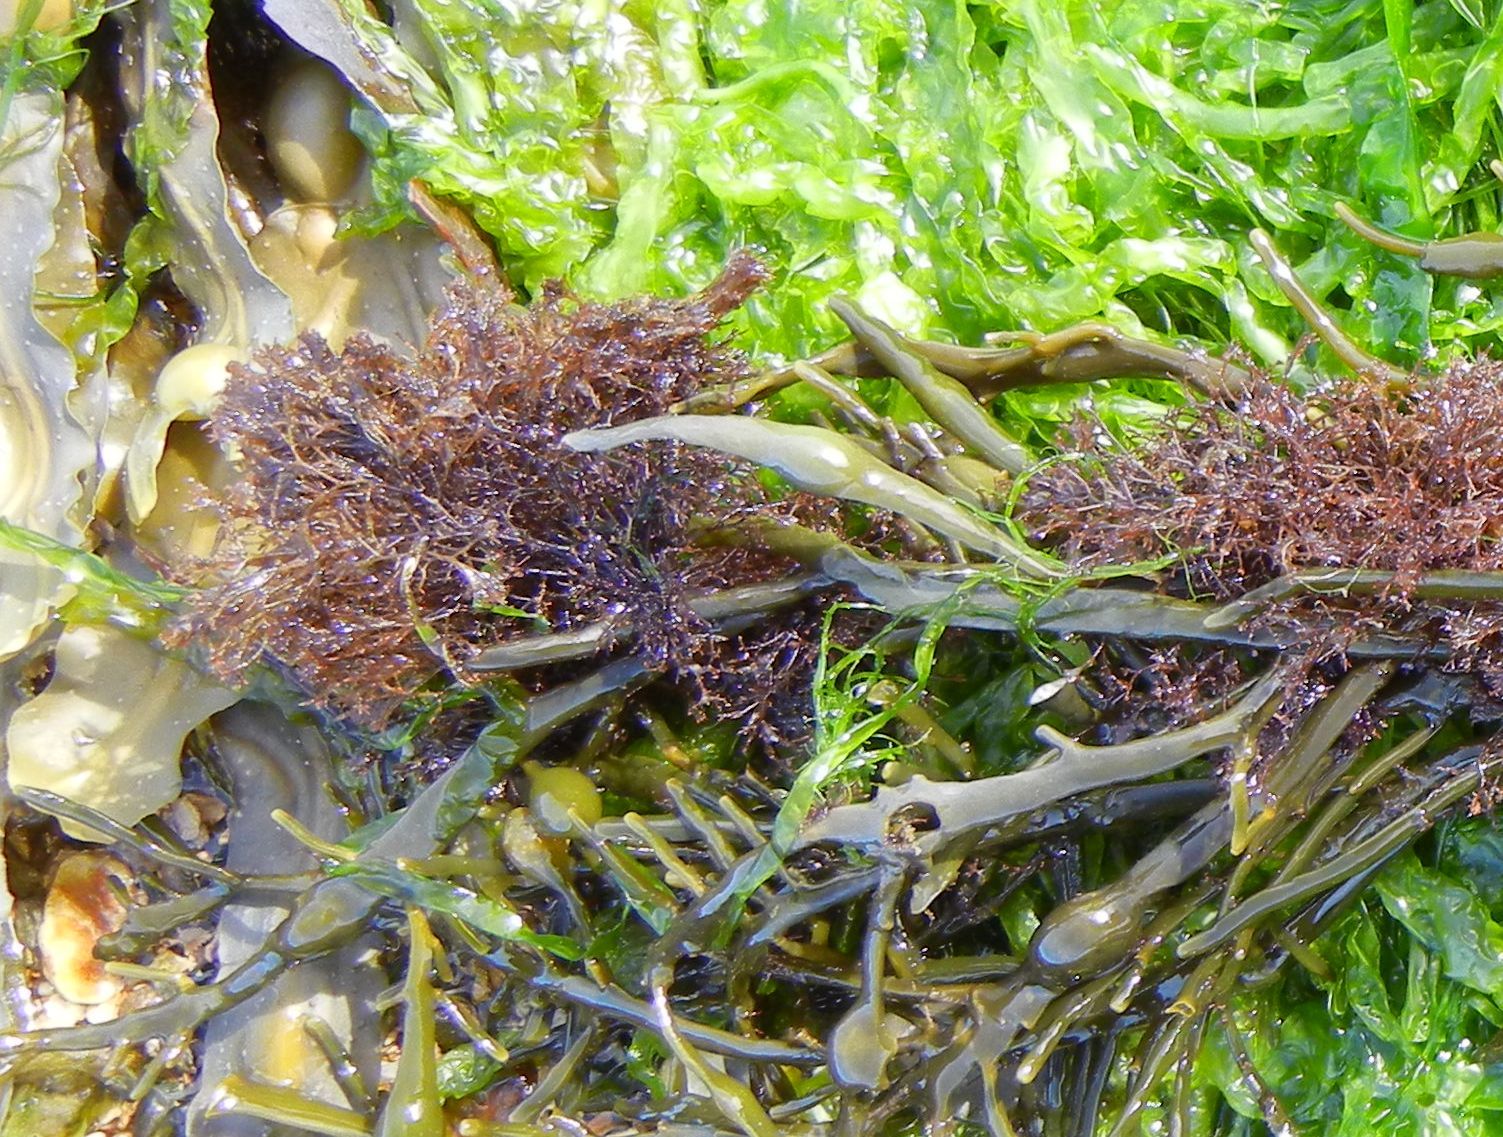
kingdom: Plantae
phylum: Rhodophyta
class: Florideophyceae
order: Ceramiales
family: Rhodomelaceae
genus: Vertebrata
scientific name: Vertebrata lanosa
